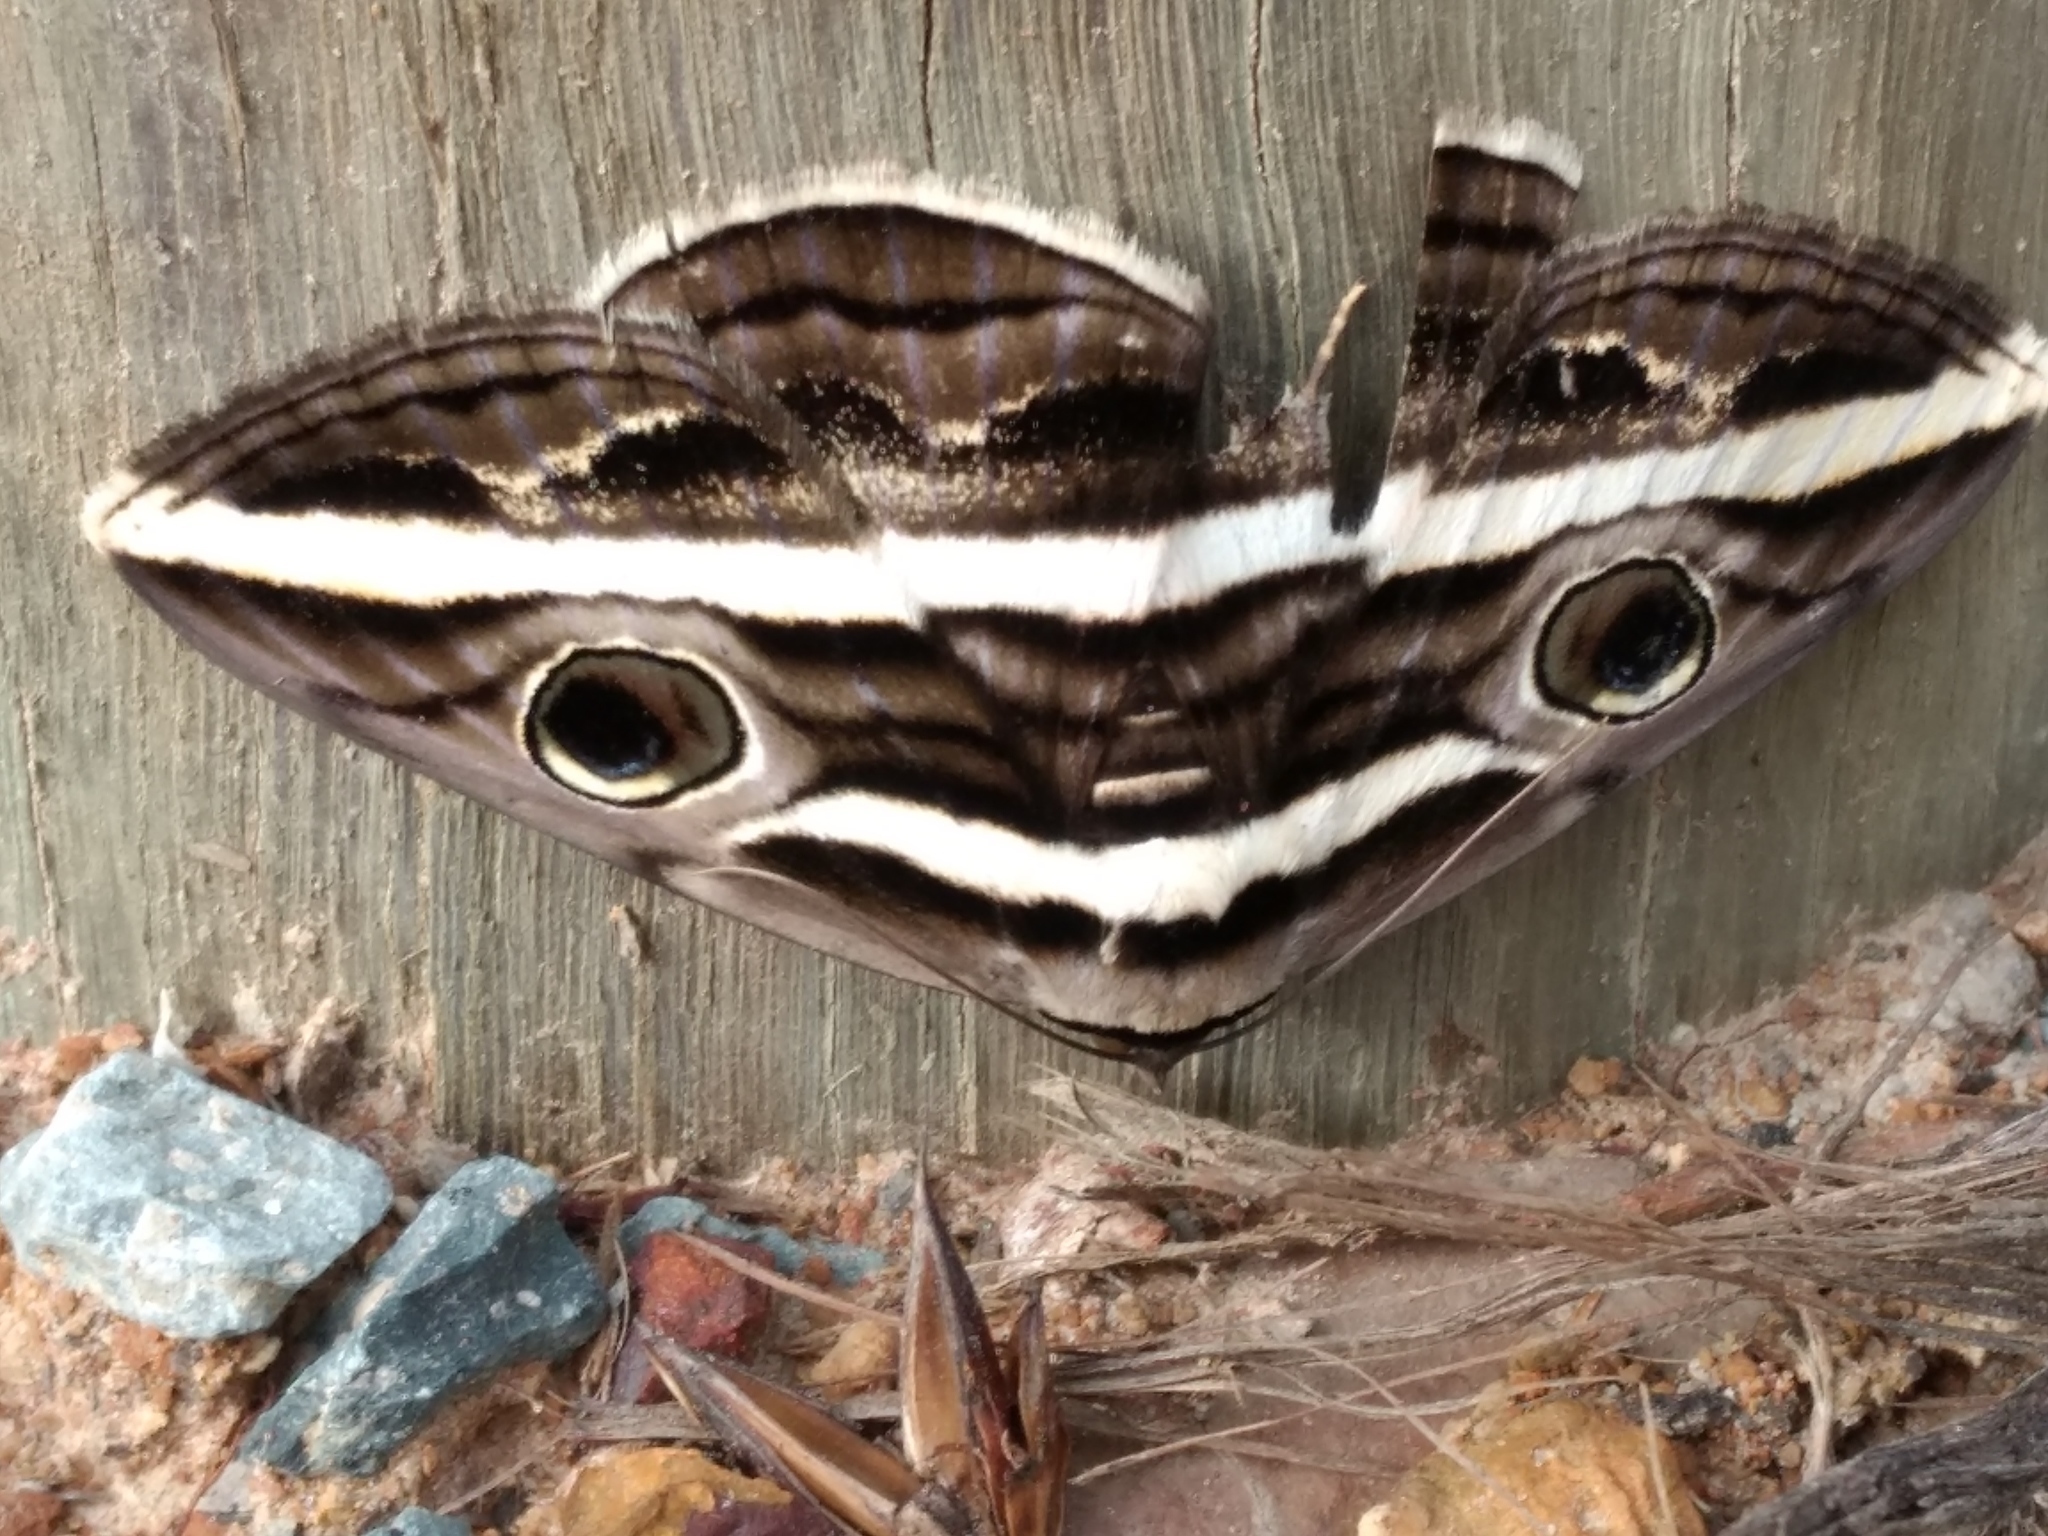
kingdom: Animalia
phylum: Arthropoda
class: Insecta
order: Lepidoptera
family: Erebidae
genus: Donuca
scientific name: Donuca rubropicta
